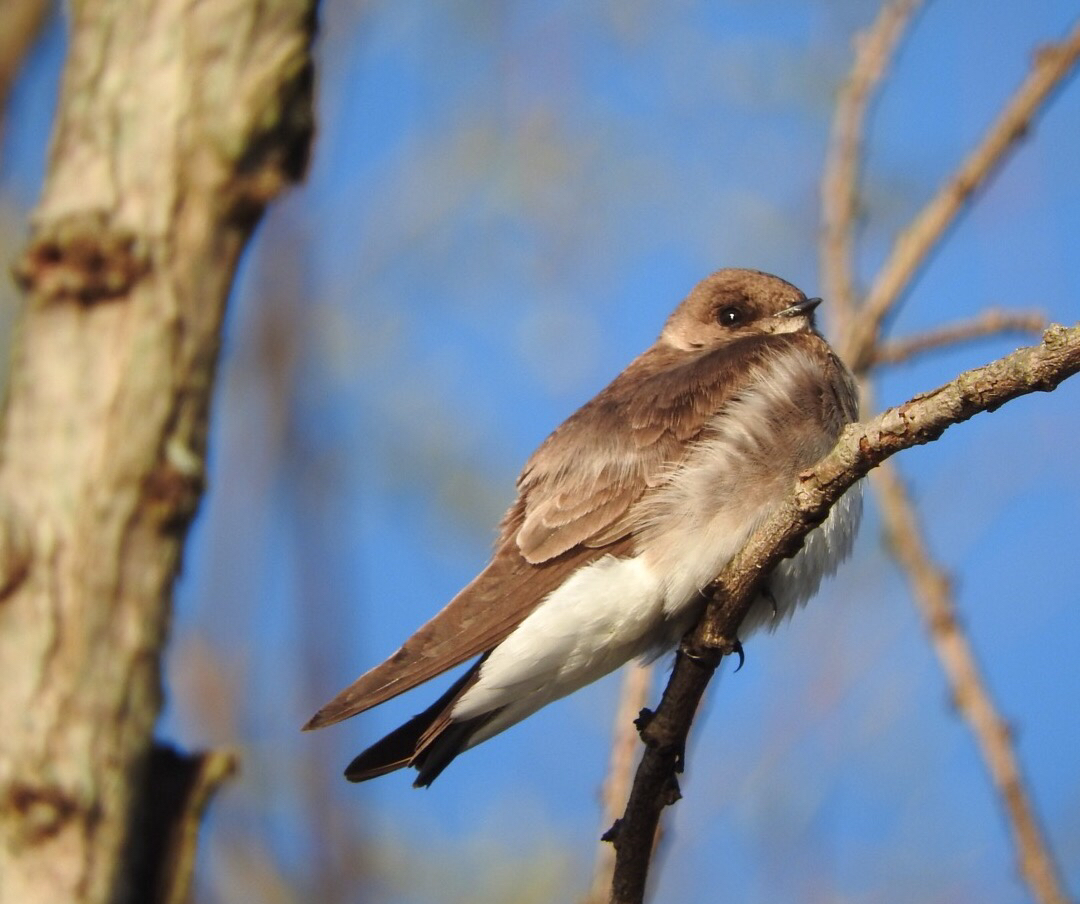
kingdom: Animalia
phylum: Chordata
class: Aves
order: Passeriformes
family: Hirundinidae
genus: Stelgidopteryx
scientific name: Stelgidopteryx serripennis
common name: Northern rough-winged swallow
